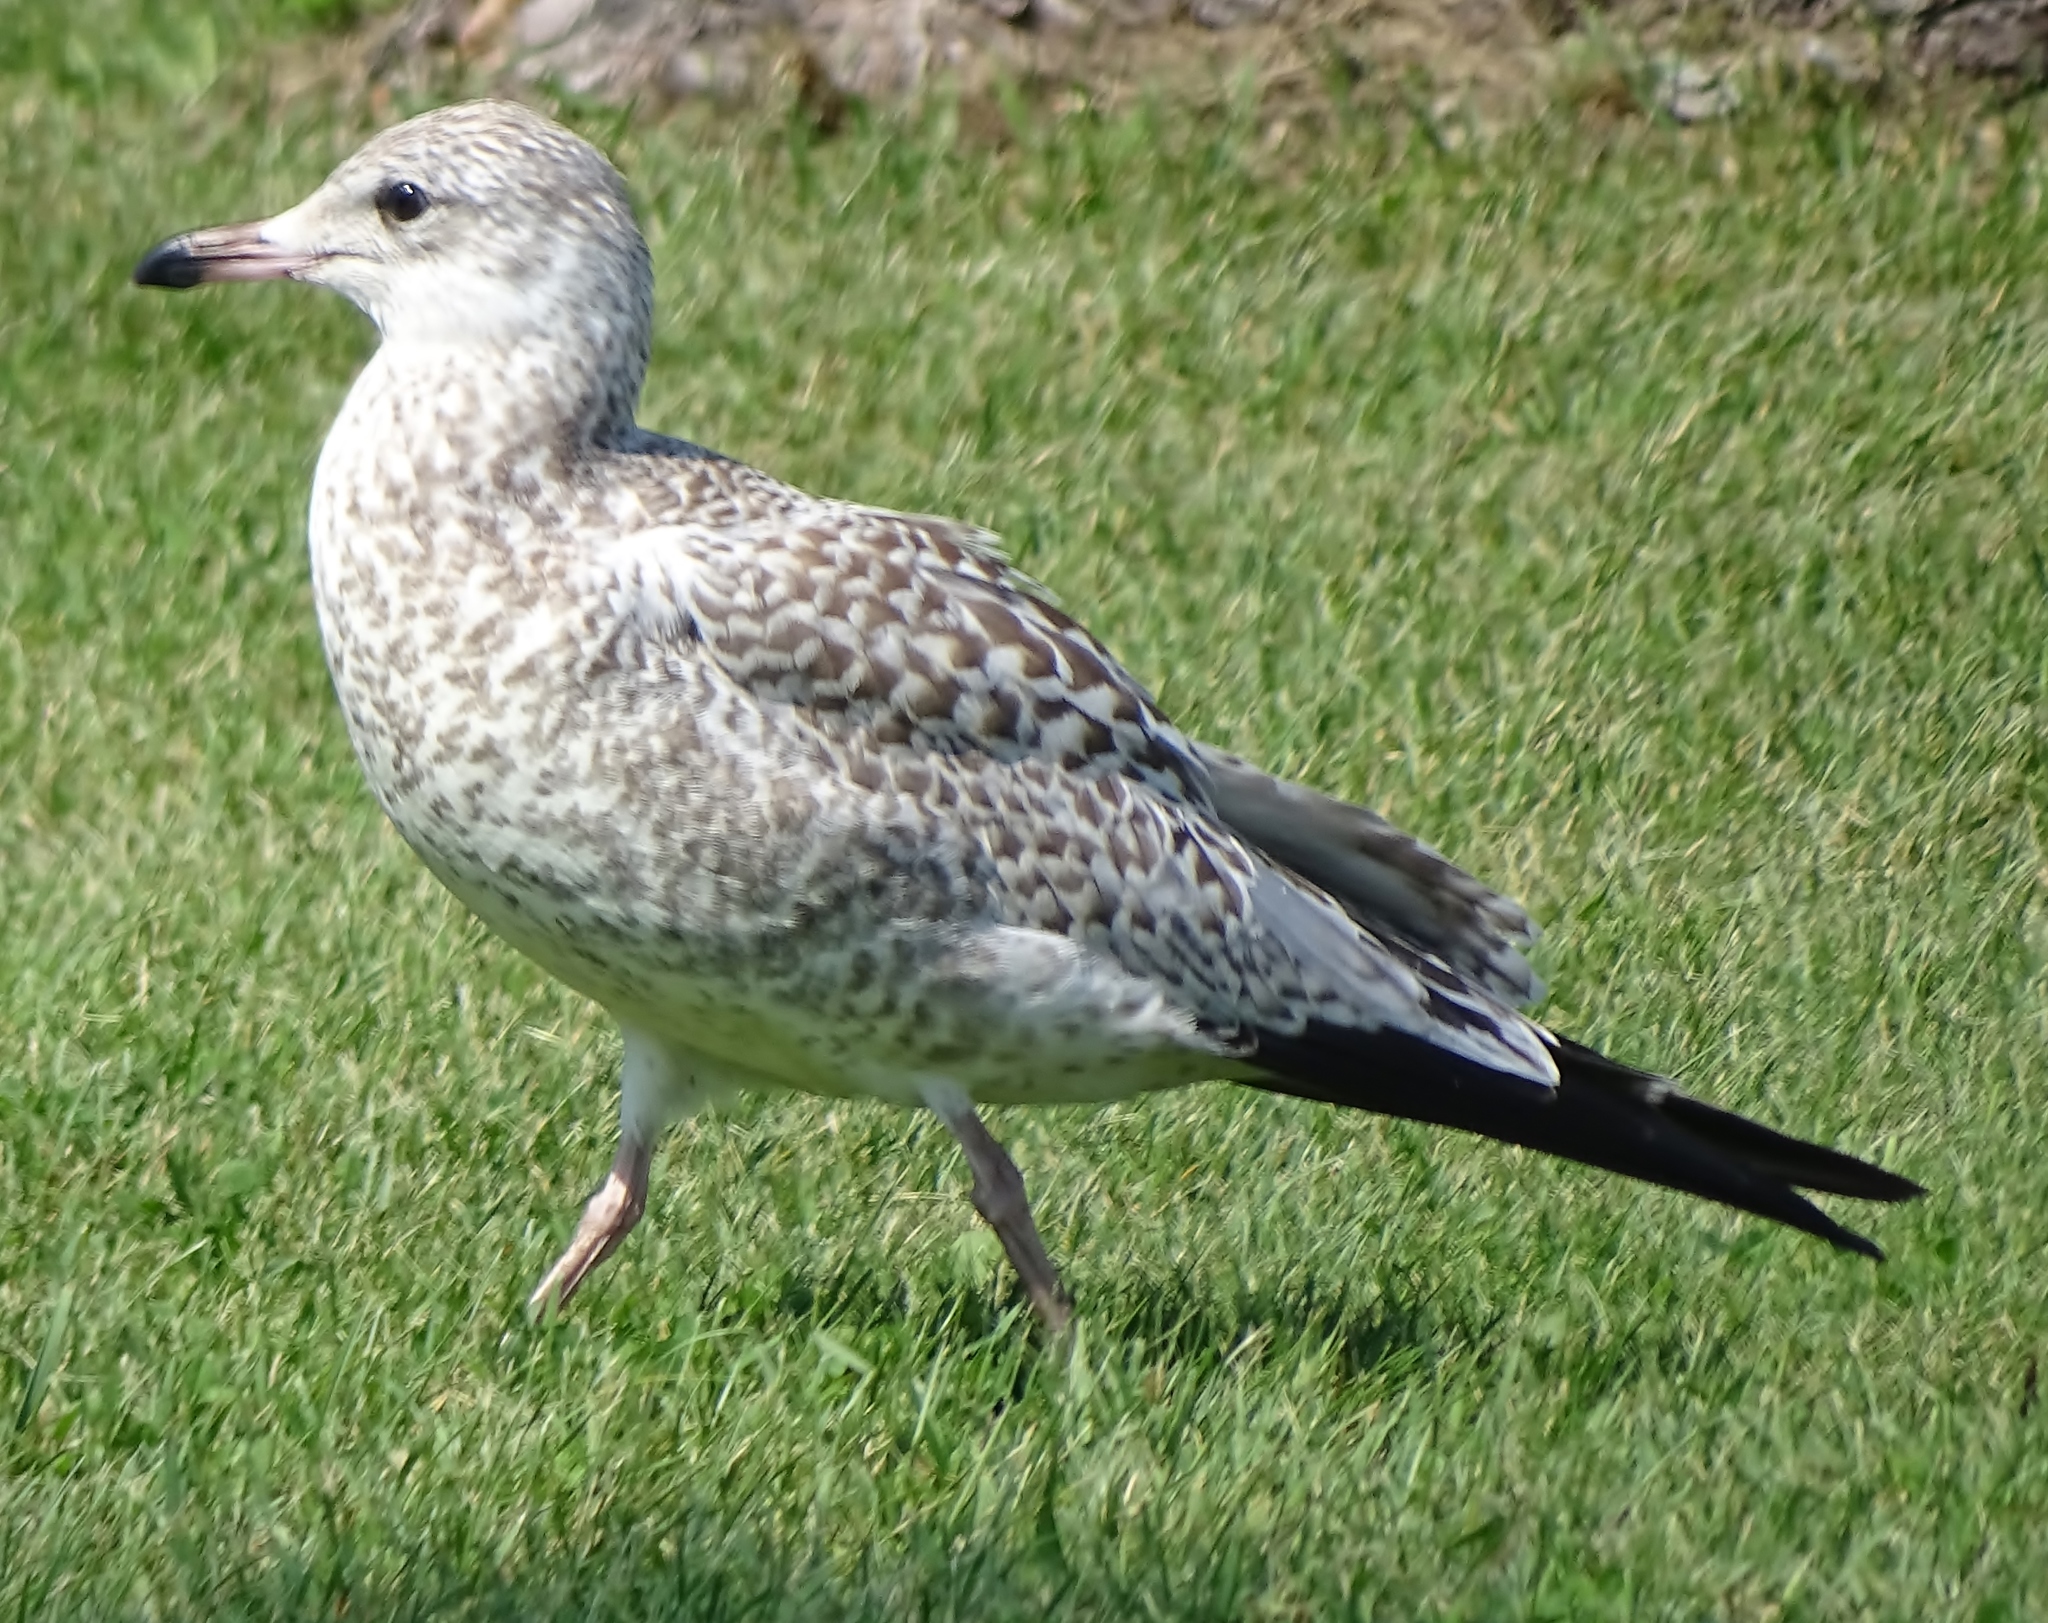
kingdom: Animalia
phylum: Chordata
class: Aves
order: Charadriiformes
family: Laridae
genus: Larus
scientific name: Larus delawarensis
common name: Ring-billed gull
